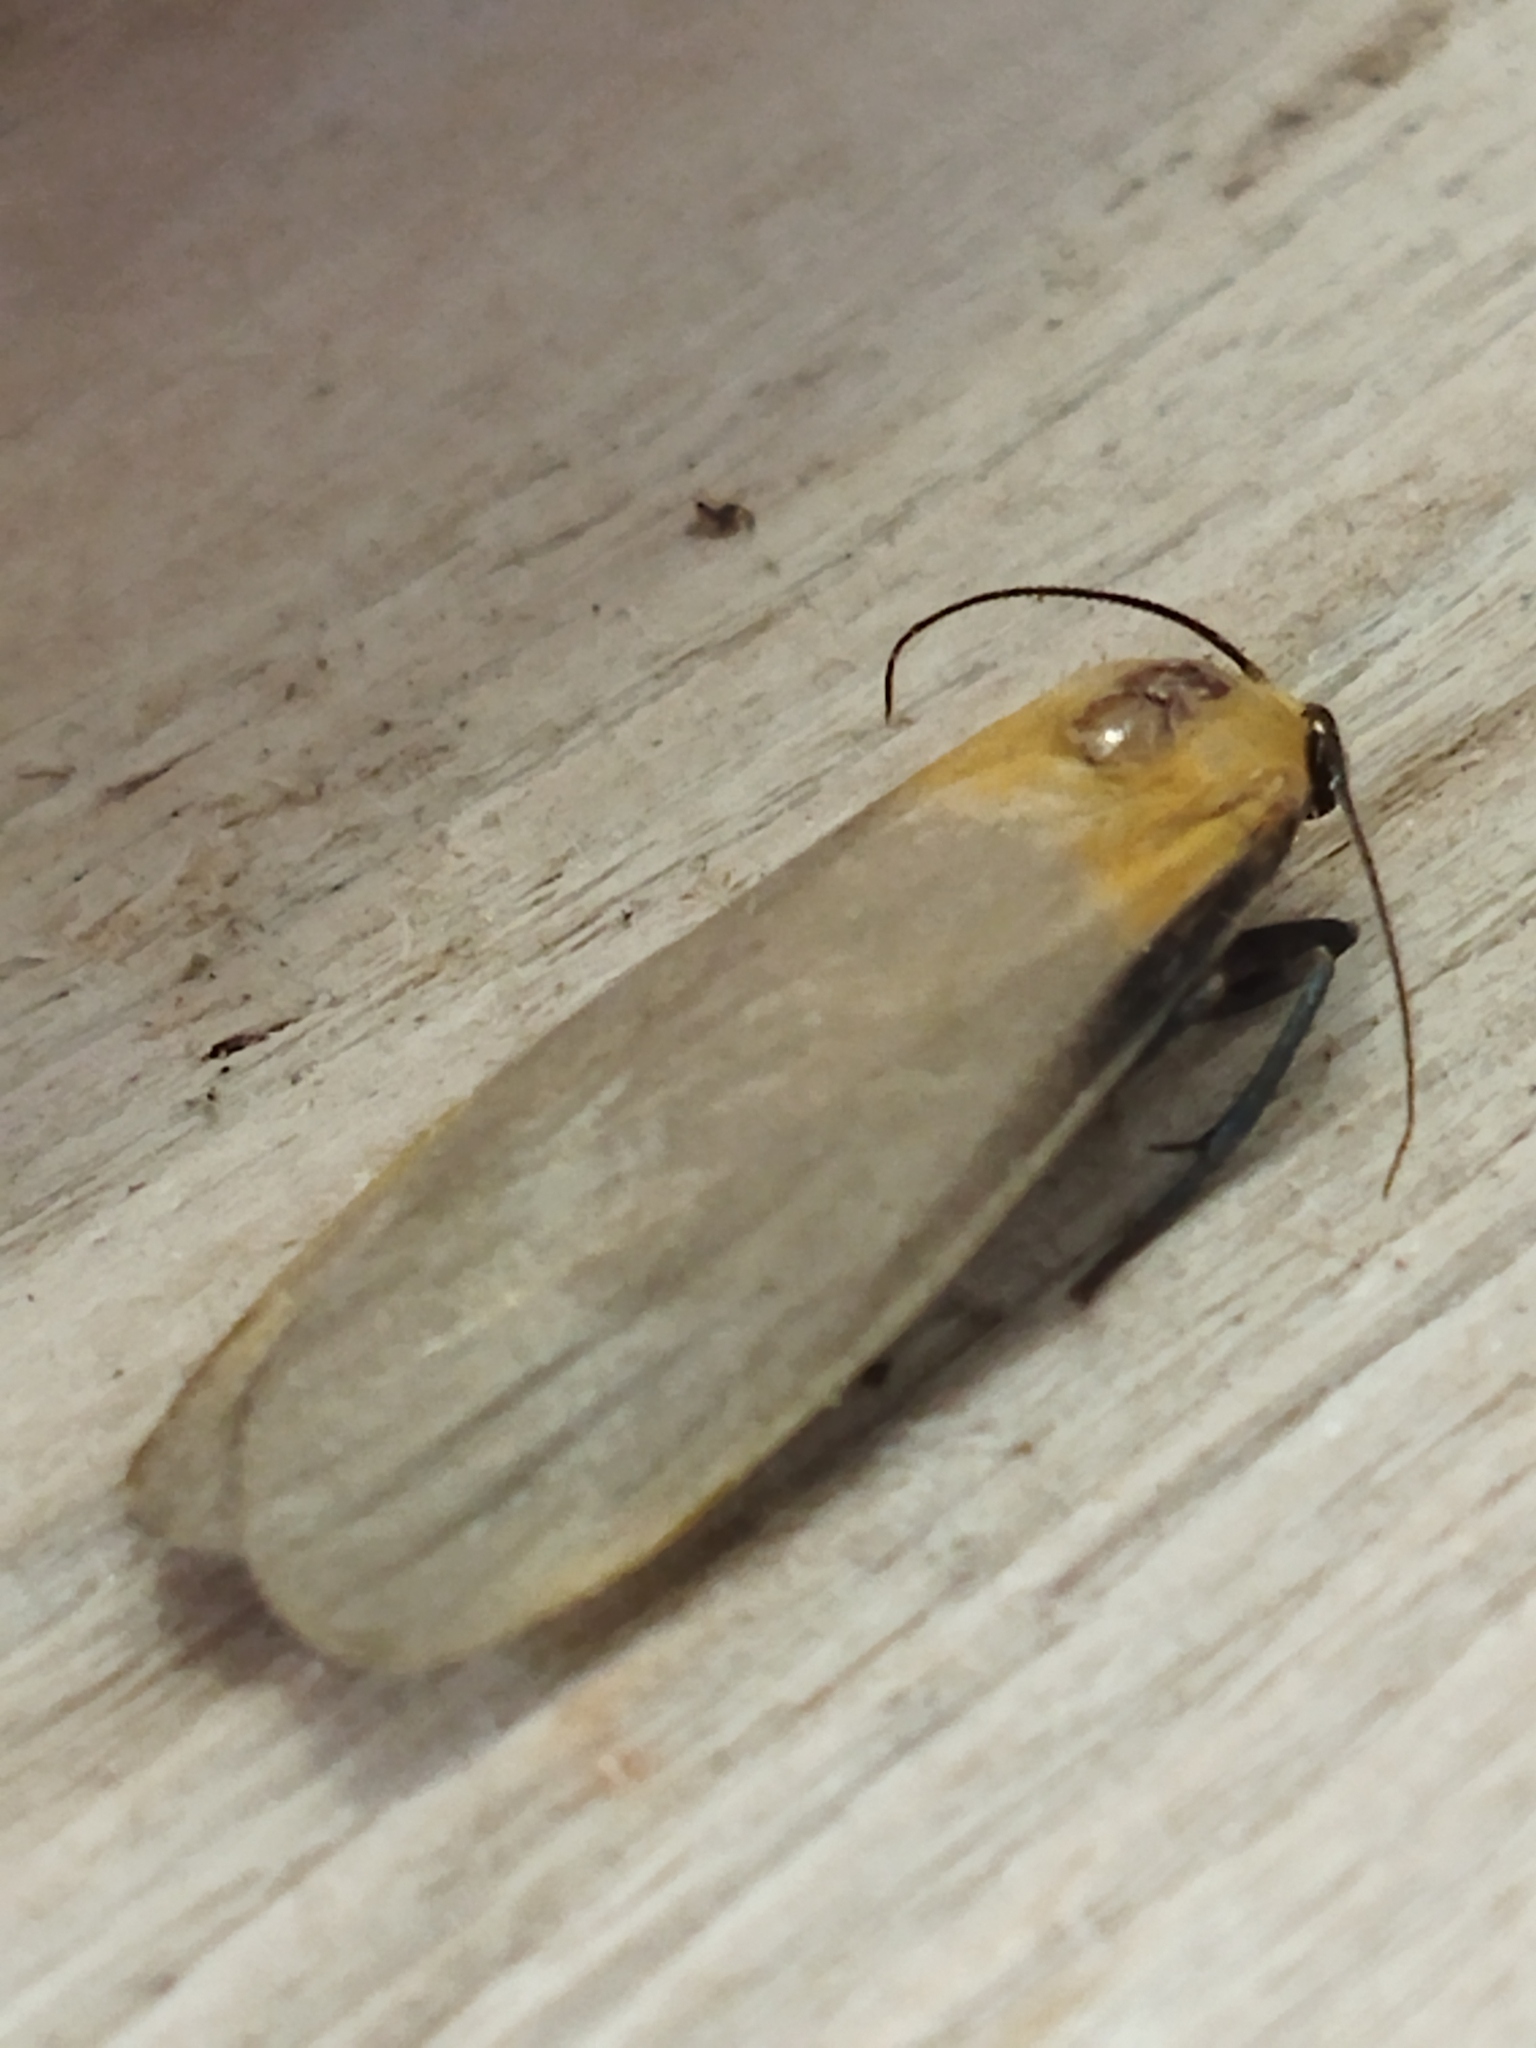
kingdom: Animalia
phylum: Arthropoda
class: Insecta
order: Lepidoptera
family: Erebidae
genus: Lithosia
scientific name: Lithosia quadra
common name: Four-spotted footman
